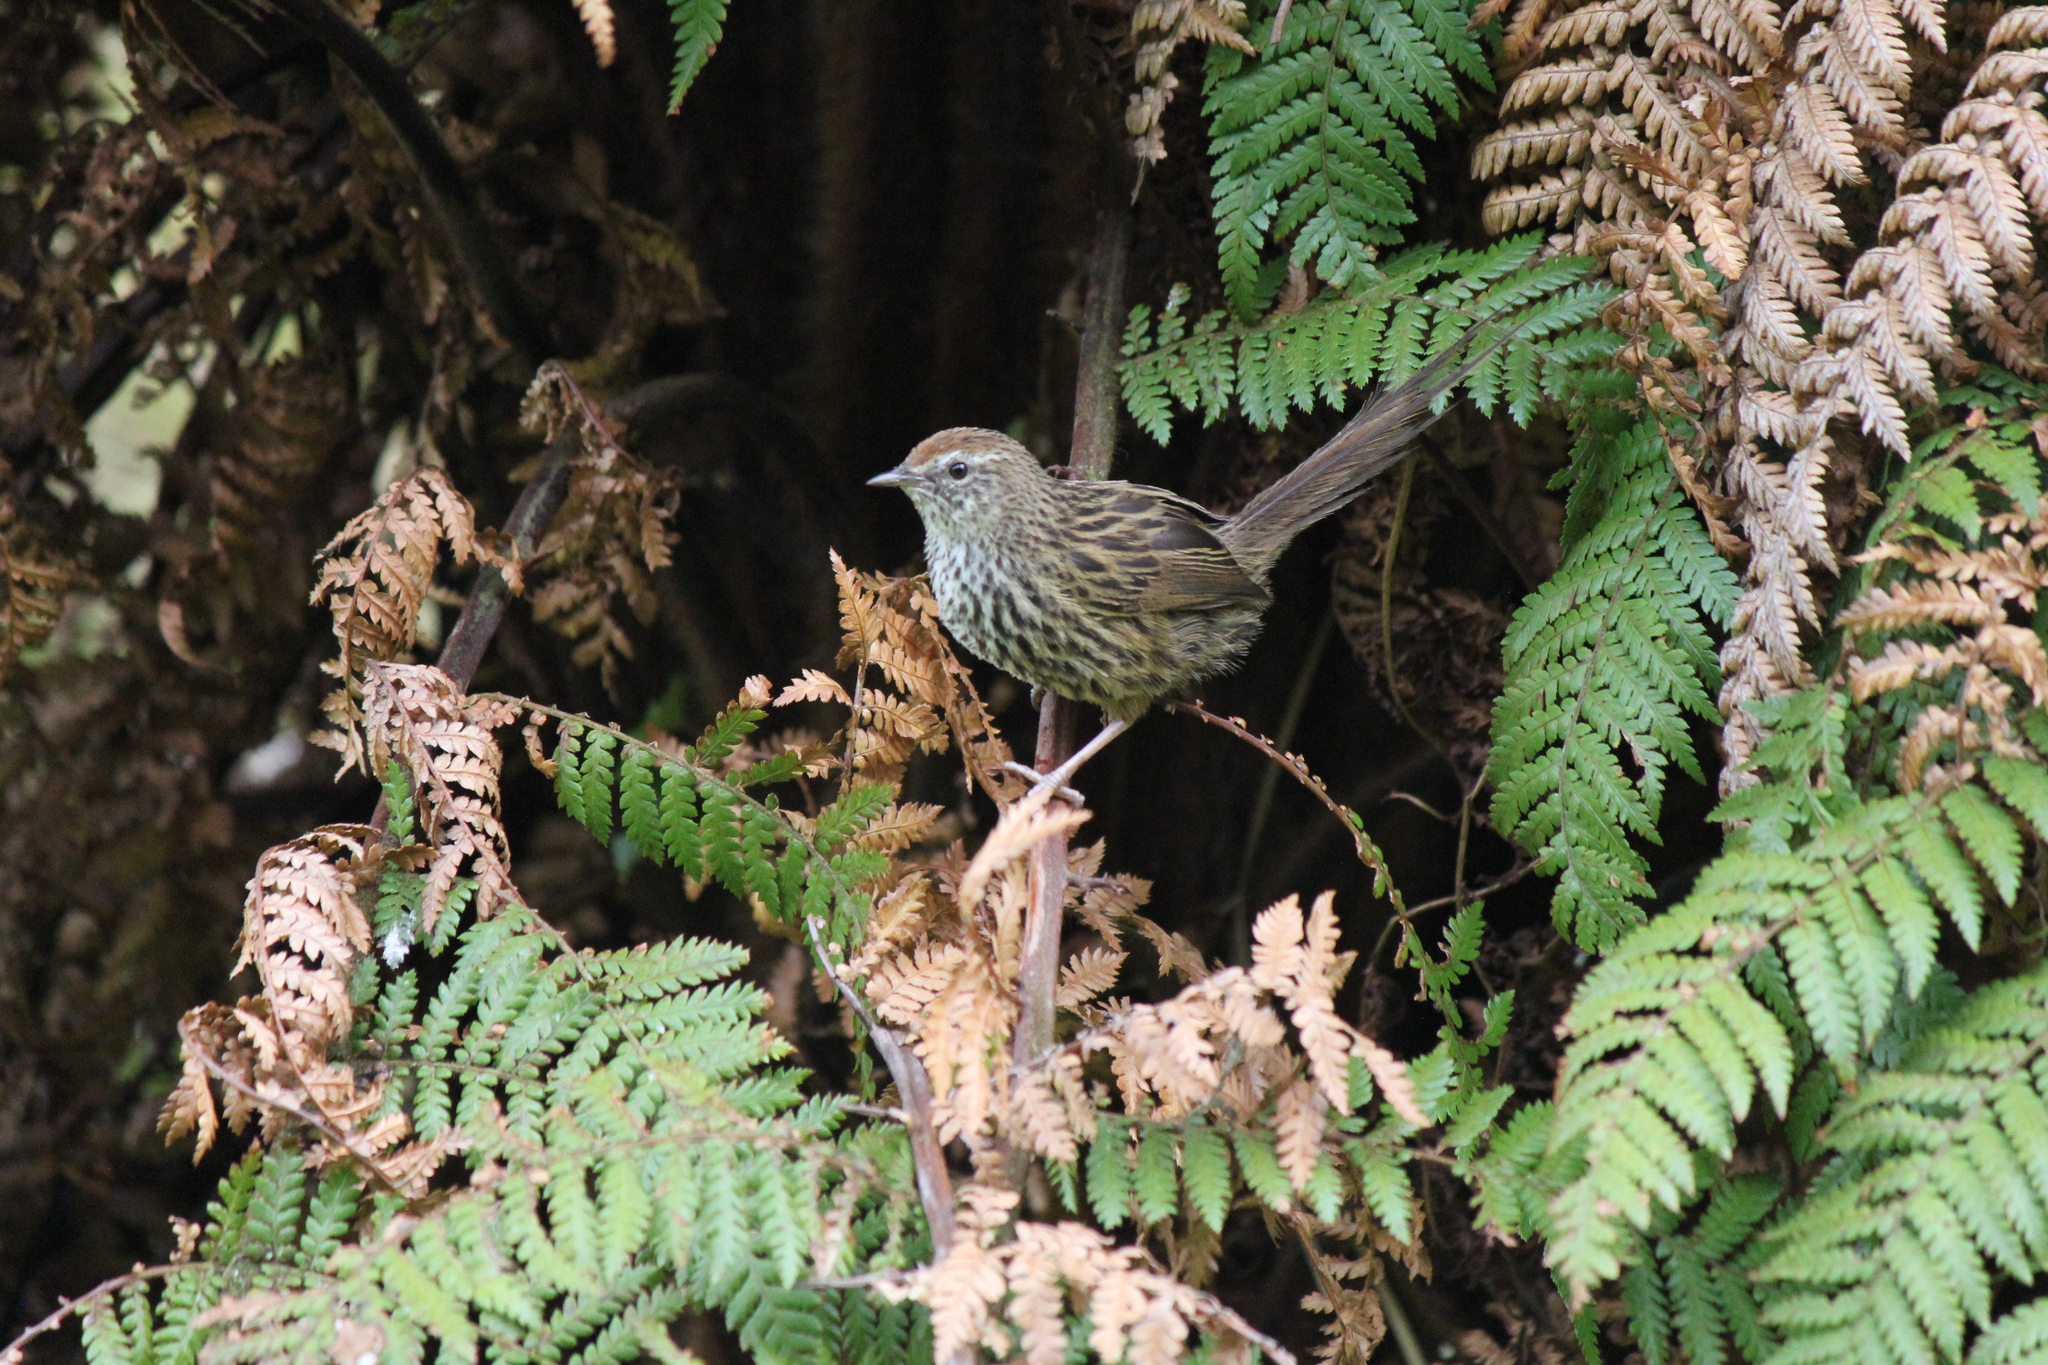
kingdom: Animalia
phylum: Chordata
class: Aves
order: Passeriformes
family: Locustellidae
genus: Poodytes
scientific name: Poodytes punctatus
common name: New zealand fernbird
